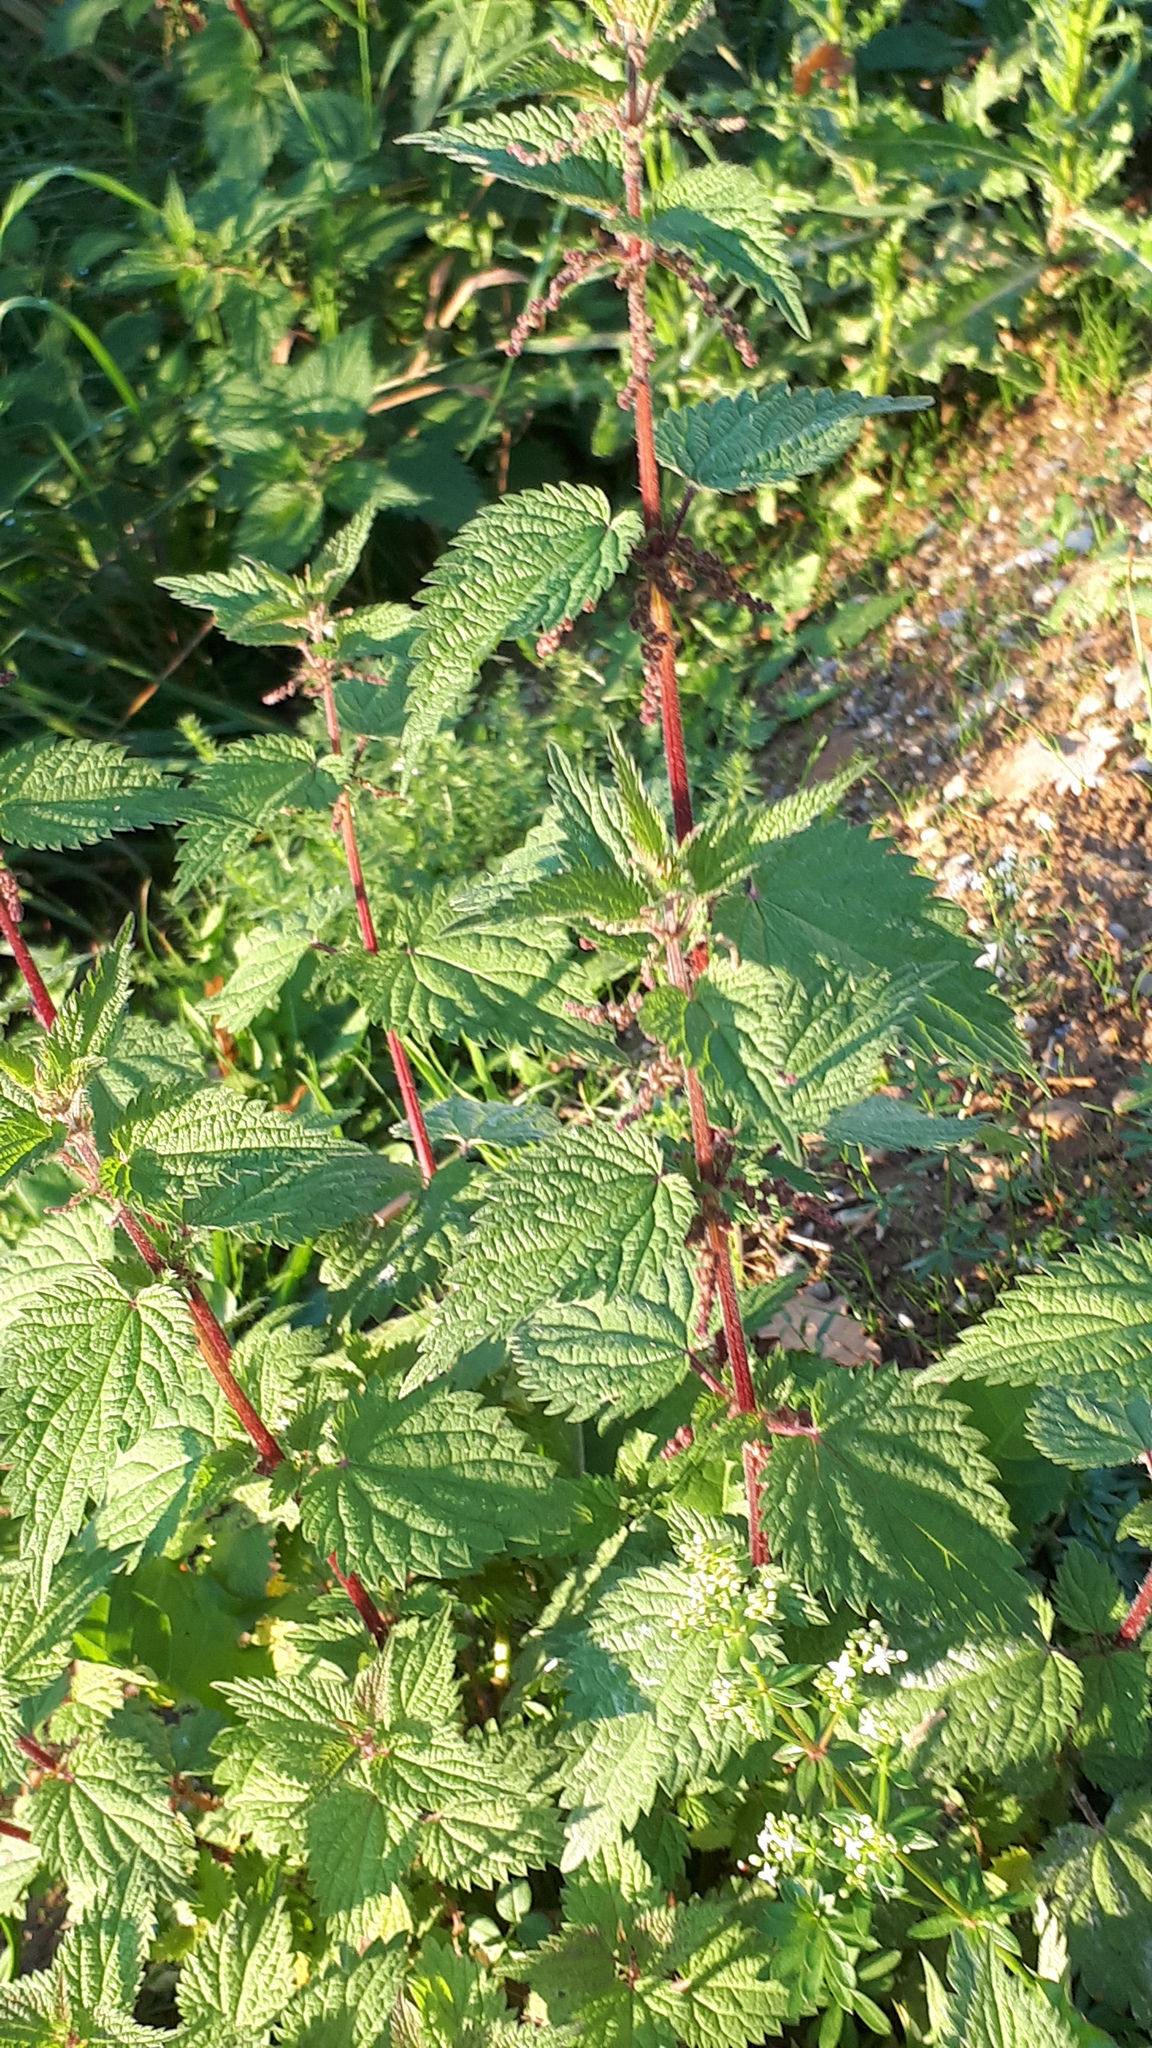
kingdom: Plantae
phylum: Tracheophyta
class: Magnoliopsida
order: Rosales
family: Urticaceae
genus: Urtica
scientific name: Urtica dioica
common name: Common nettle
